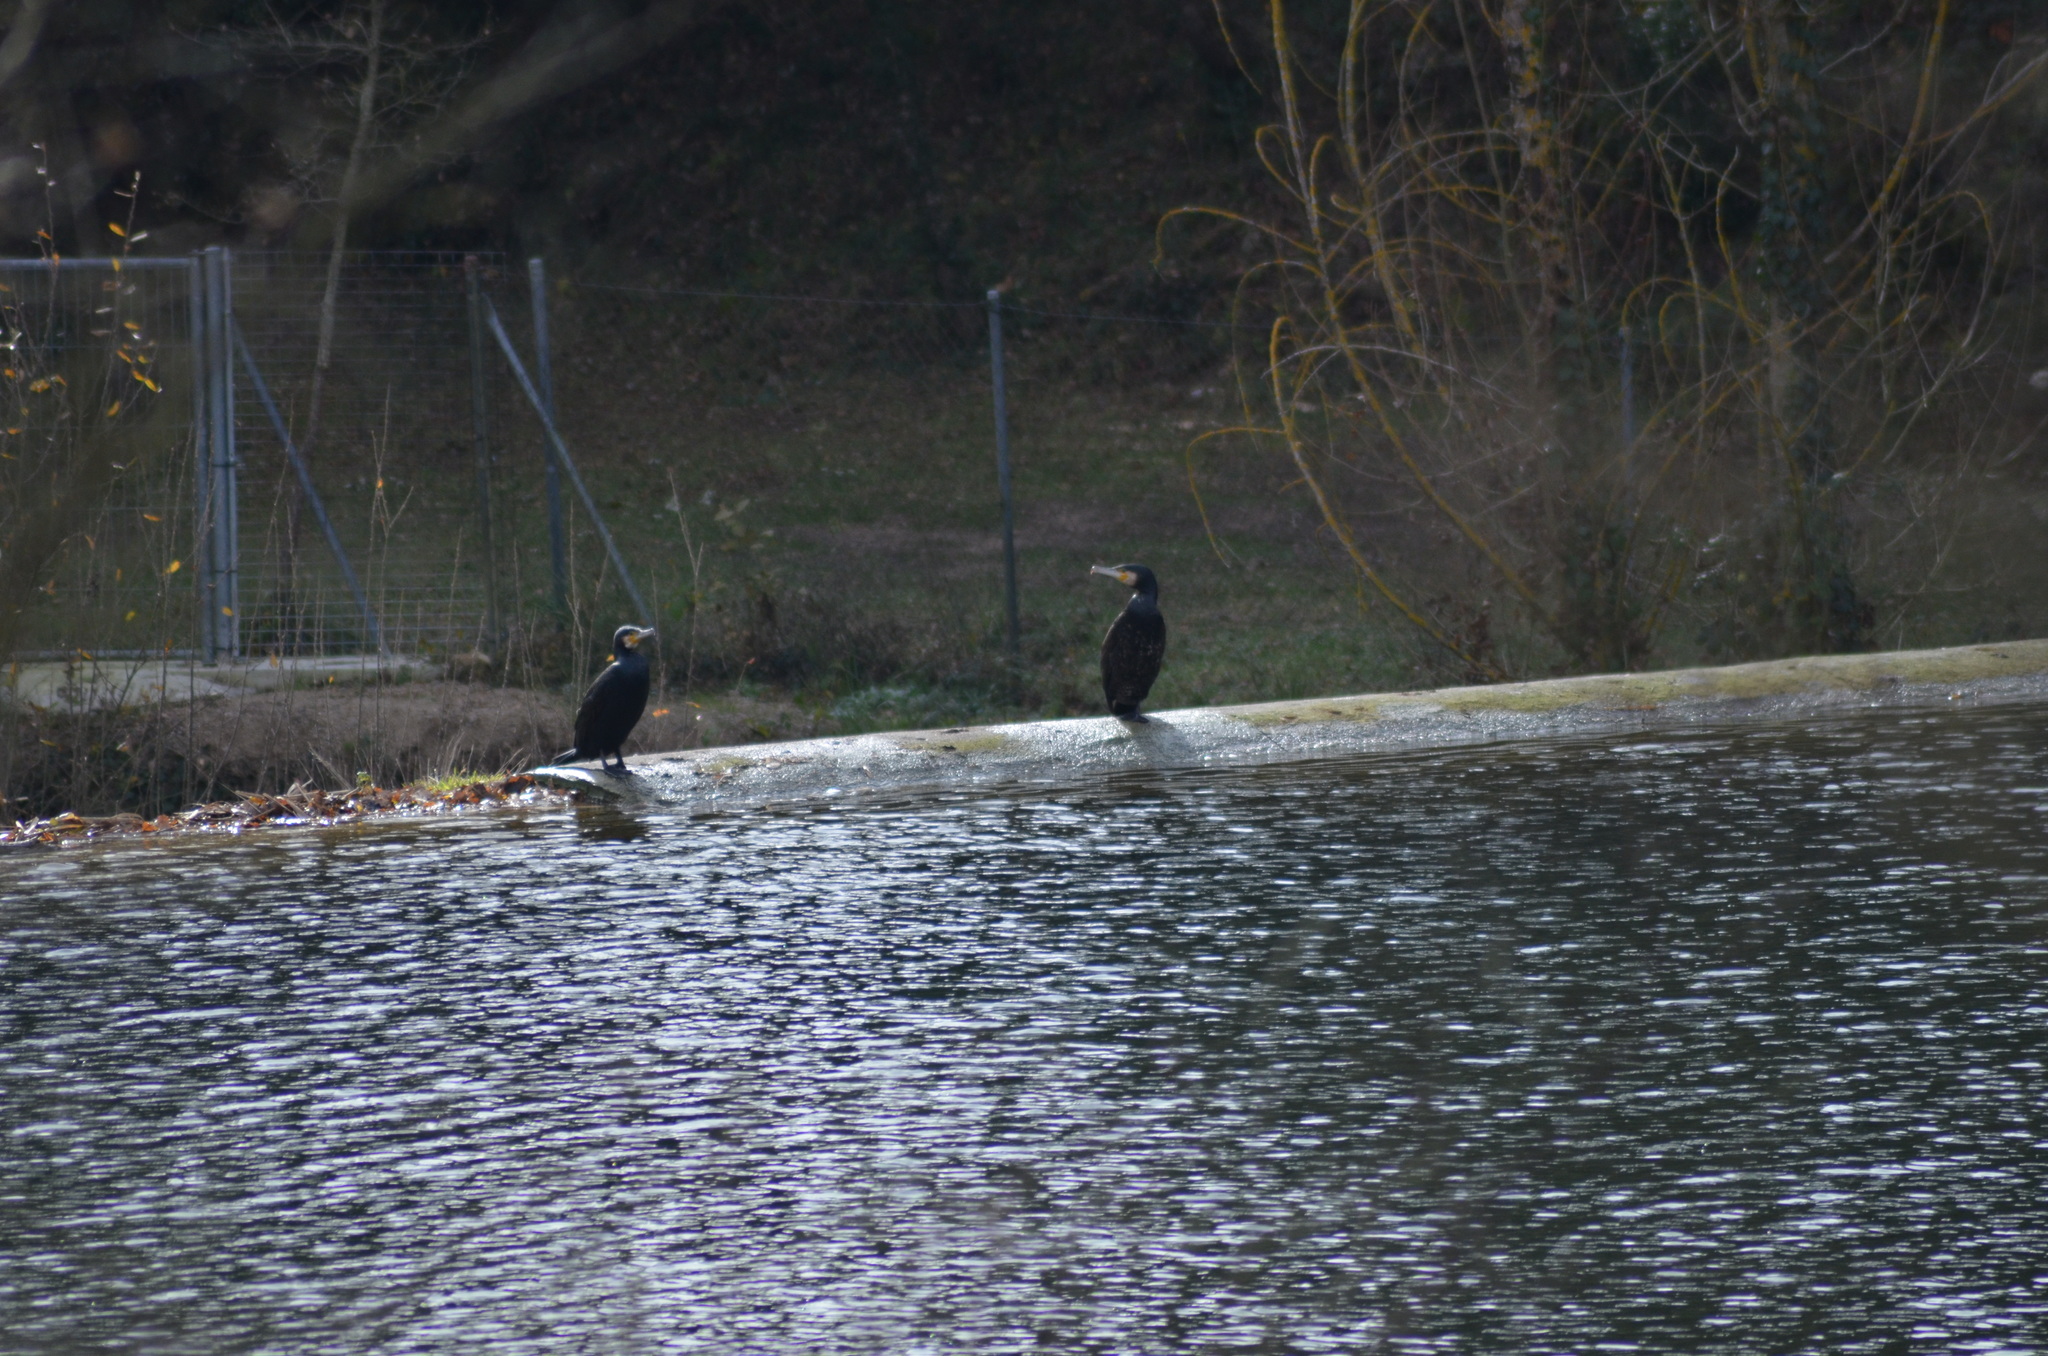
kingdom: Animalia
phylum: Chordata
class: Aves
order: Suliformes
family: Phalacrocoracidae
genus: Phalacrocorax
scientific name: Phalacrocorax carbo
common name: Great cormorant
